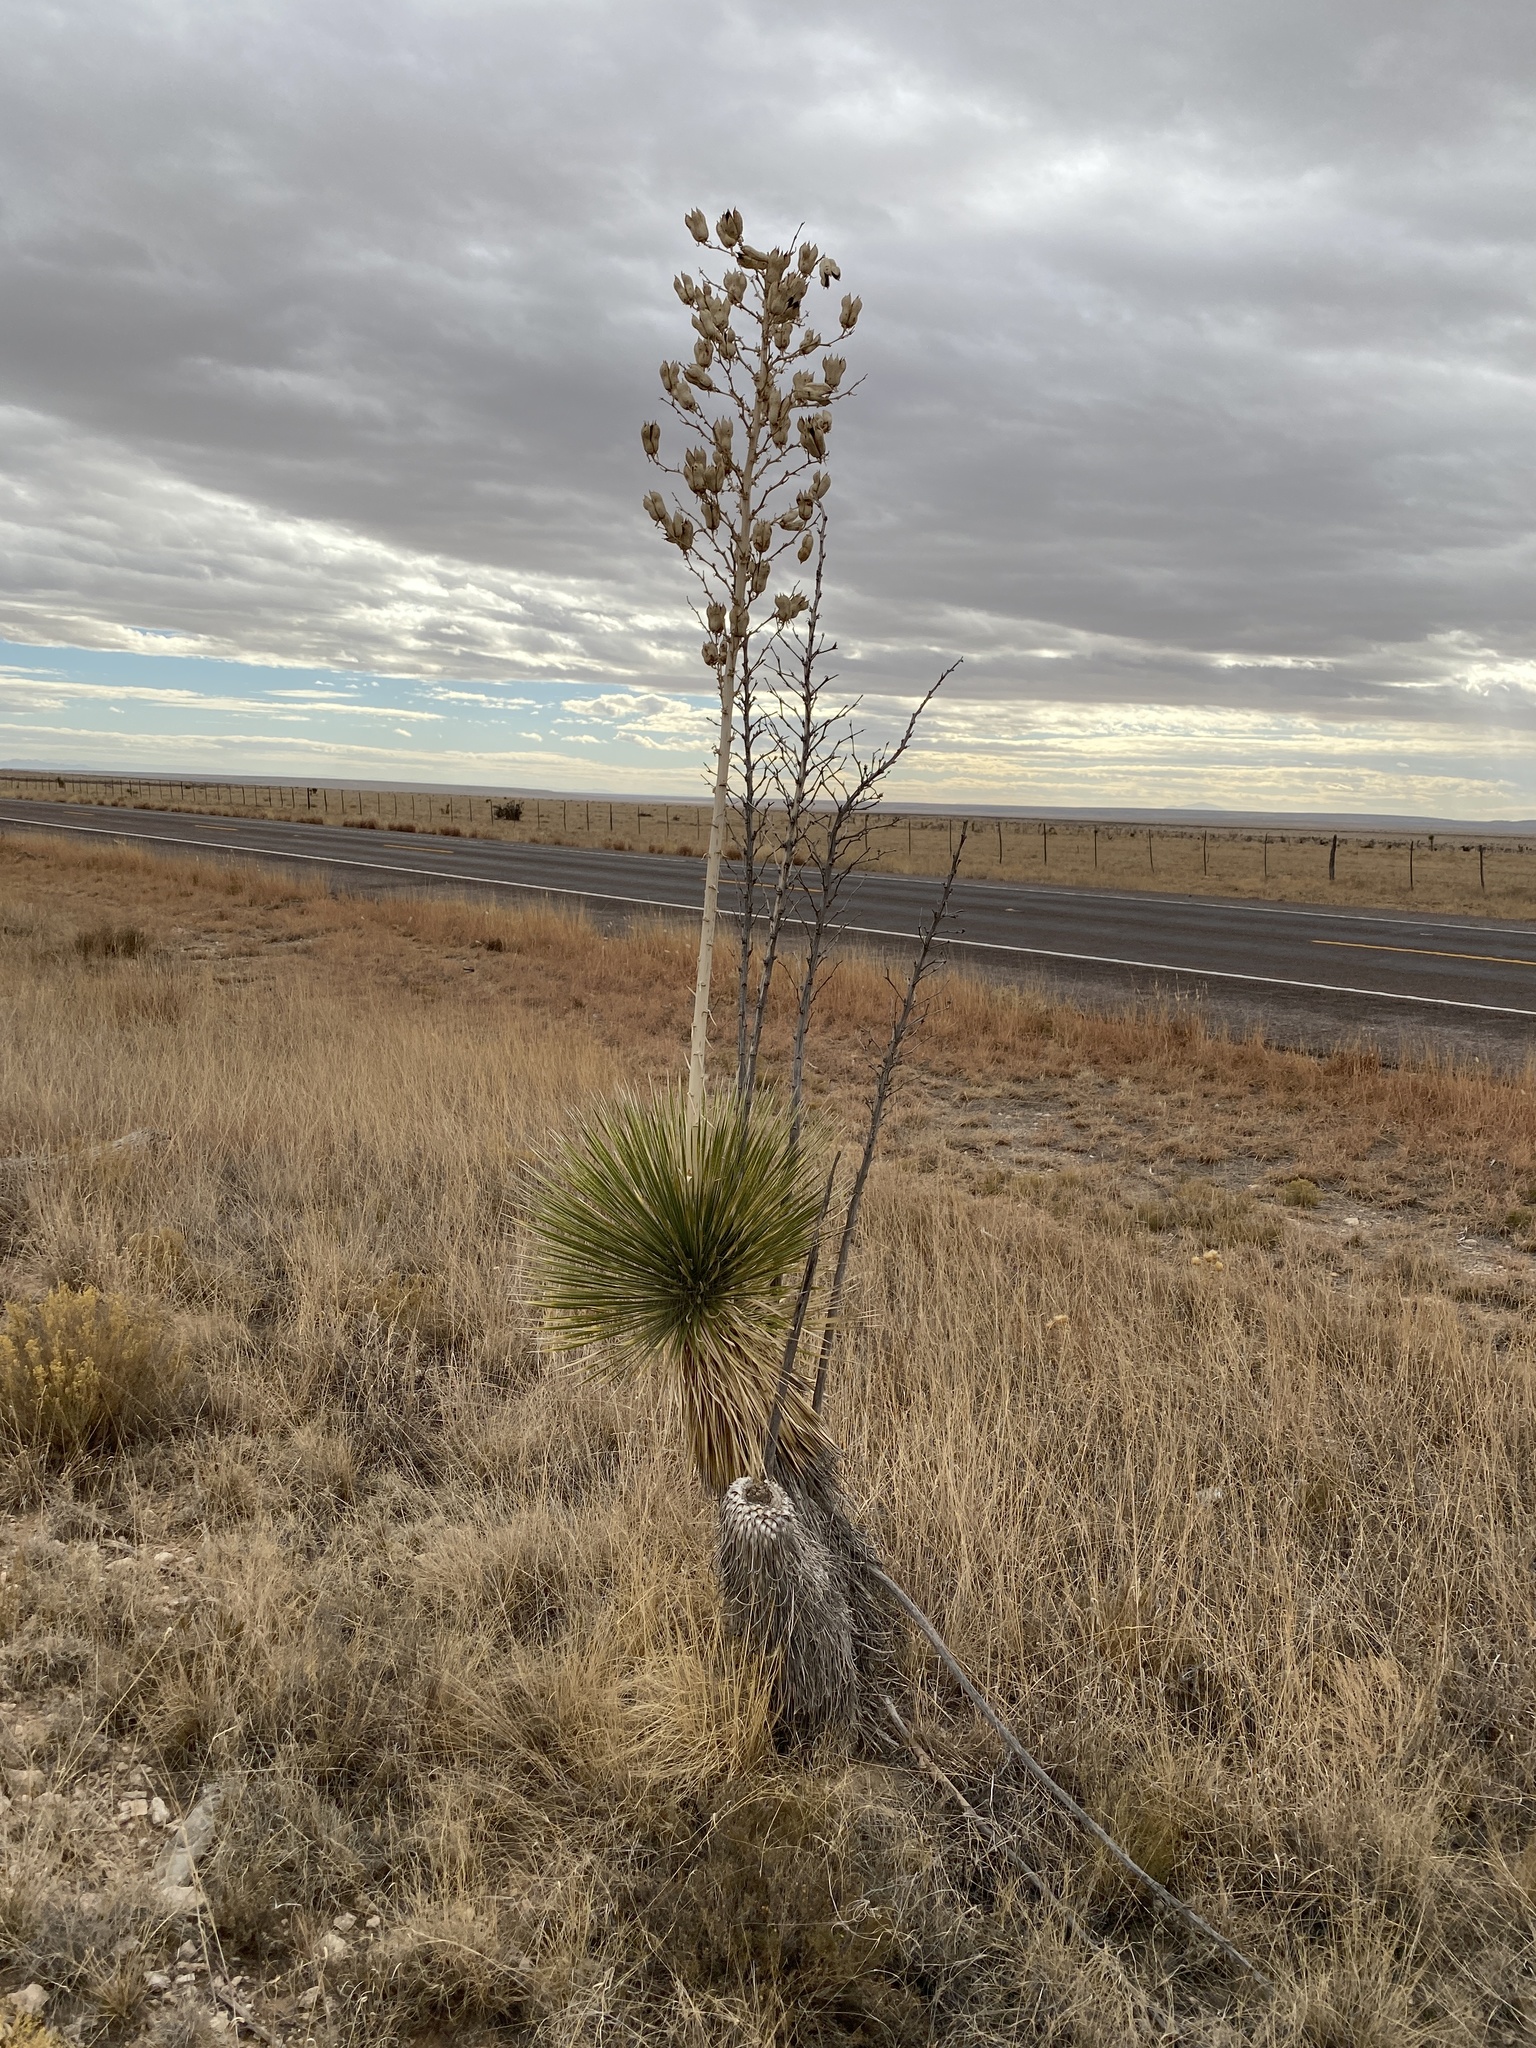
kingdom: Plantae
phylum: Tracheophyta
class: Liliopsida
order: Asparagales
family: Asparagaceae
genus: Yucca
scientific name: Yucca elata
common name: Palmella
